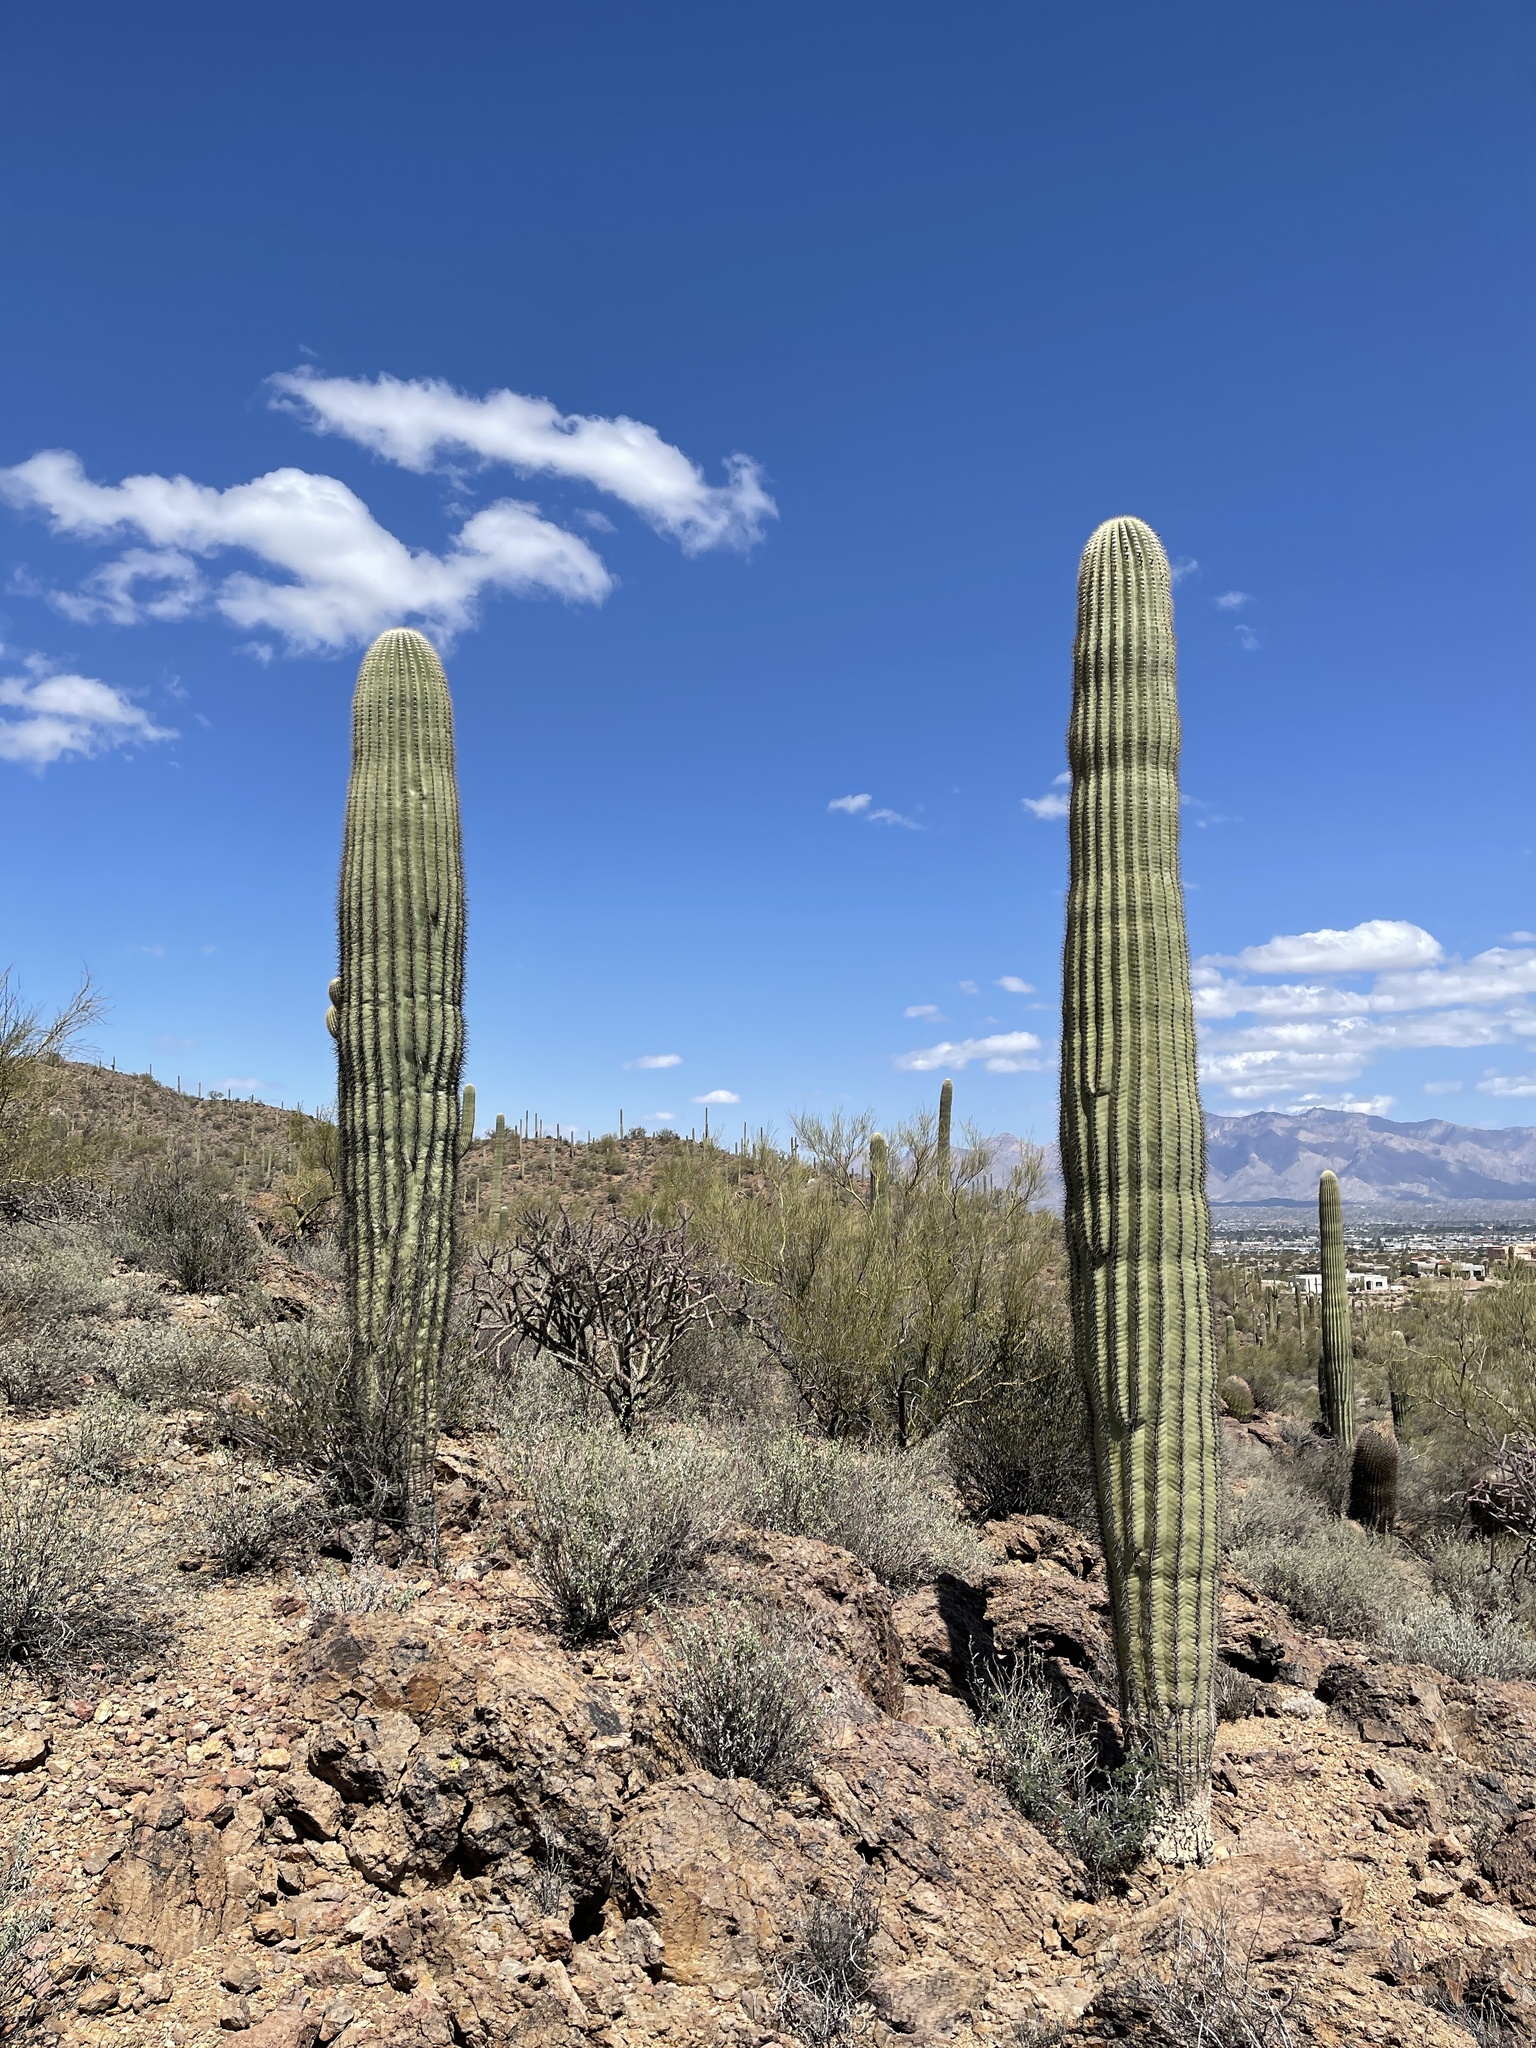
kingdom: Plantae
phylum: Tracheophyta
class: Magnoliopsida
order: Caryophyllales
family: Cactaceae
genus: Carnegiea
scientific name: Carnegiea gigantea
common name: Saguaro
